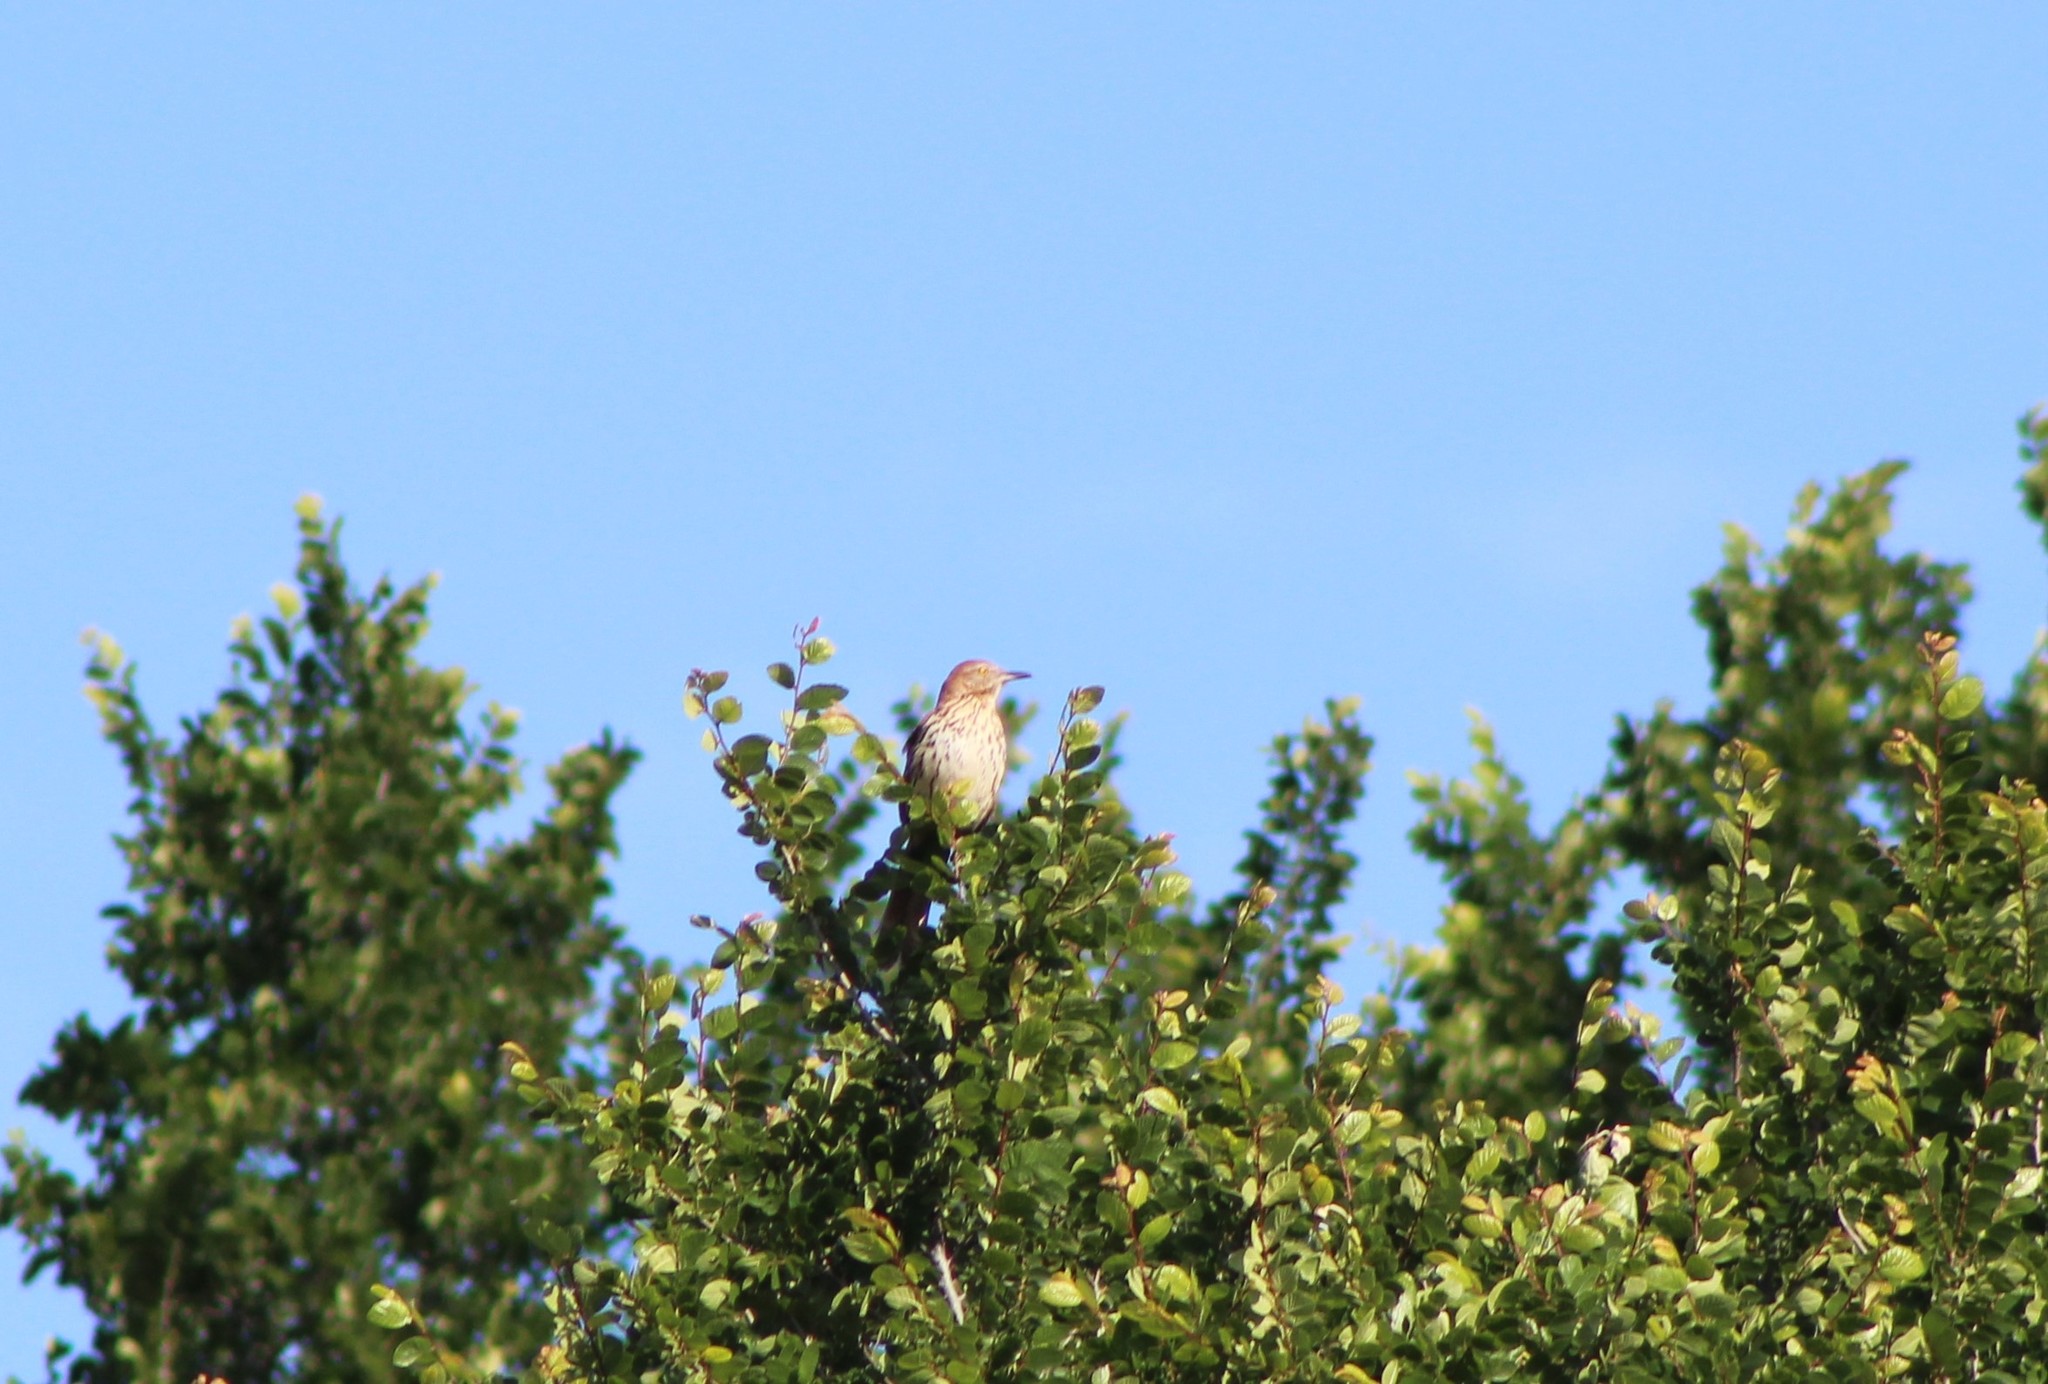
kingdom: Animalia
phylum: Chordata
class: Aves
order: Passeriformes
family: Mimidae
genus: Toxostoma
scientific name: Toxostoma rufum
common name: Brown thrasher
